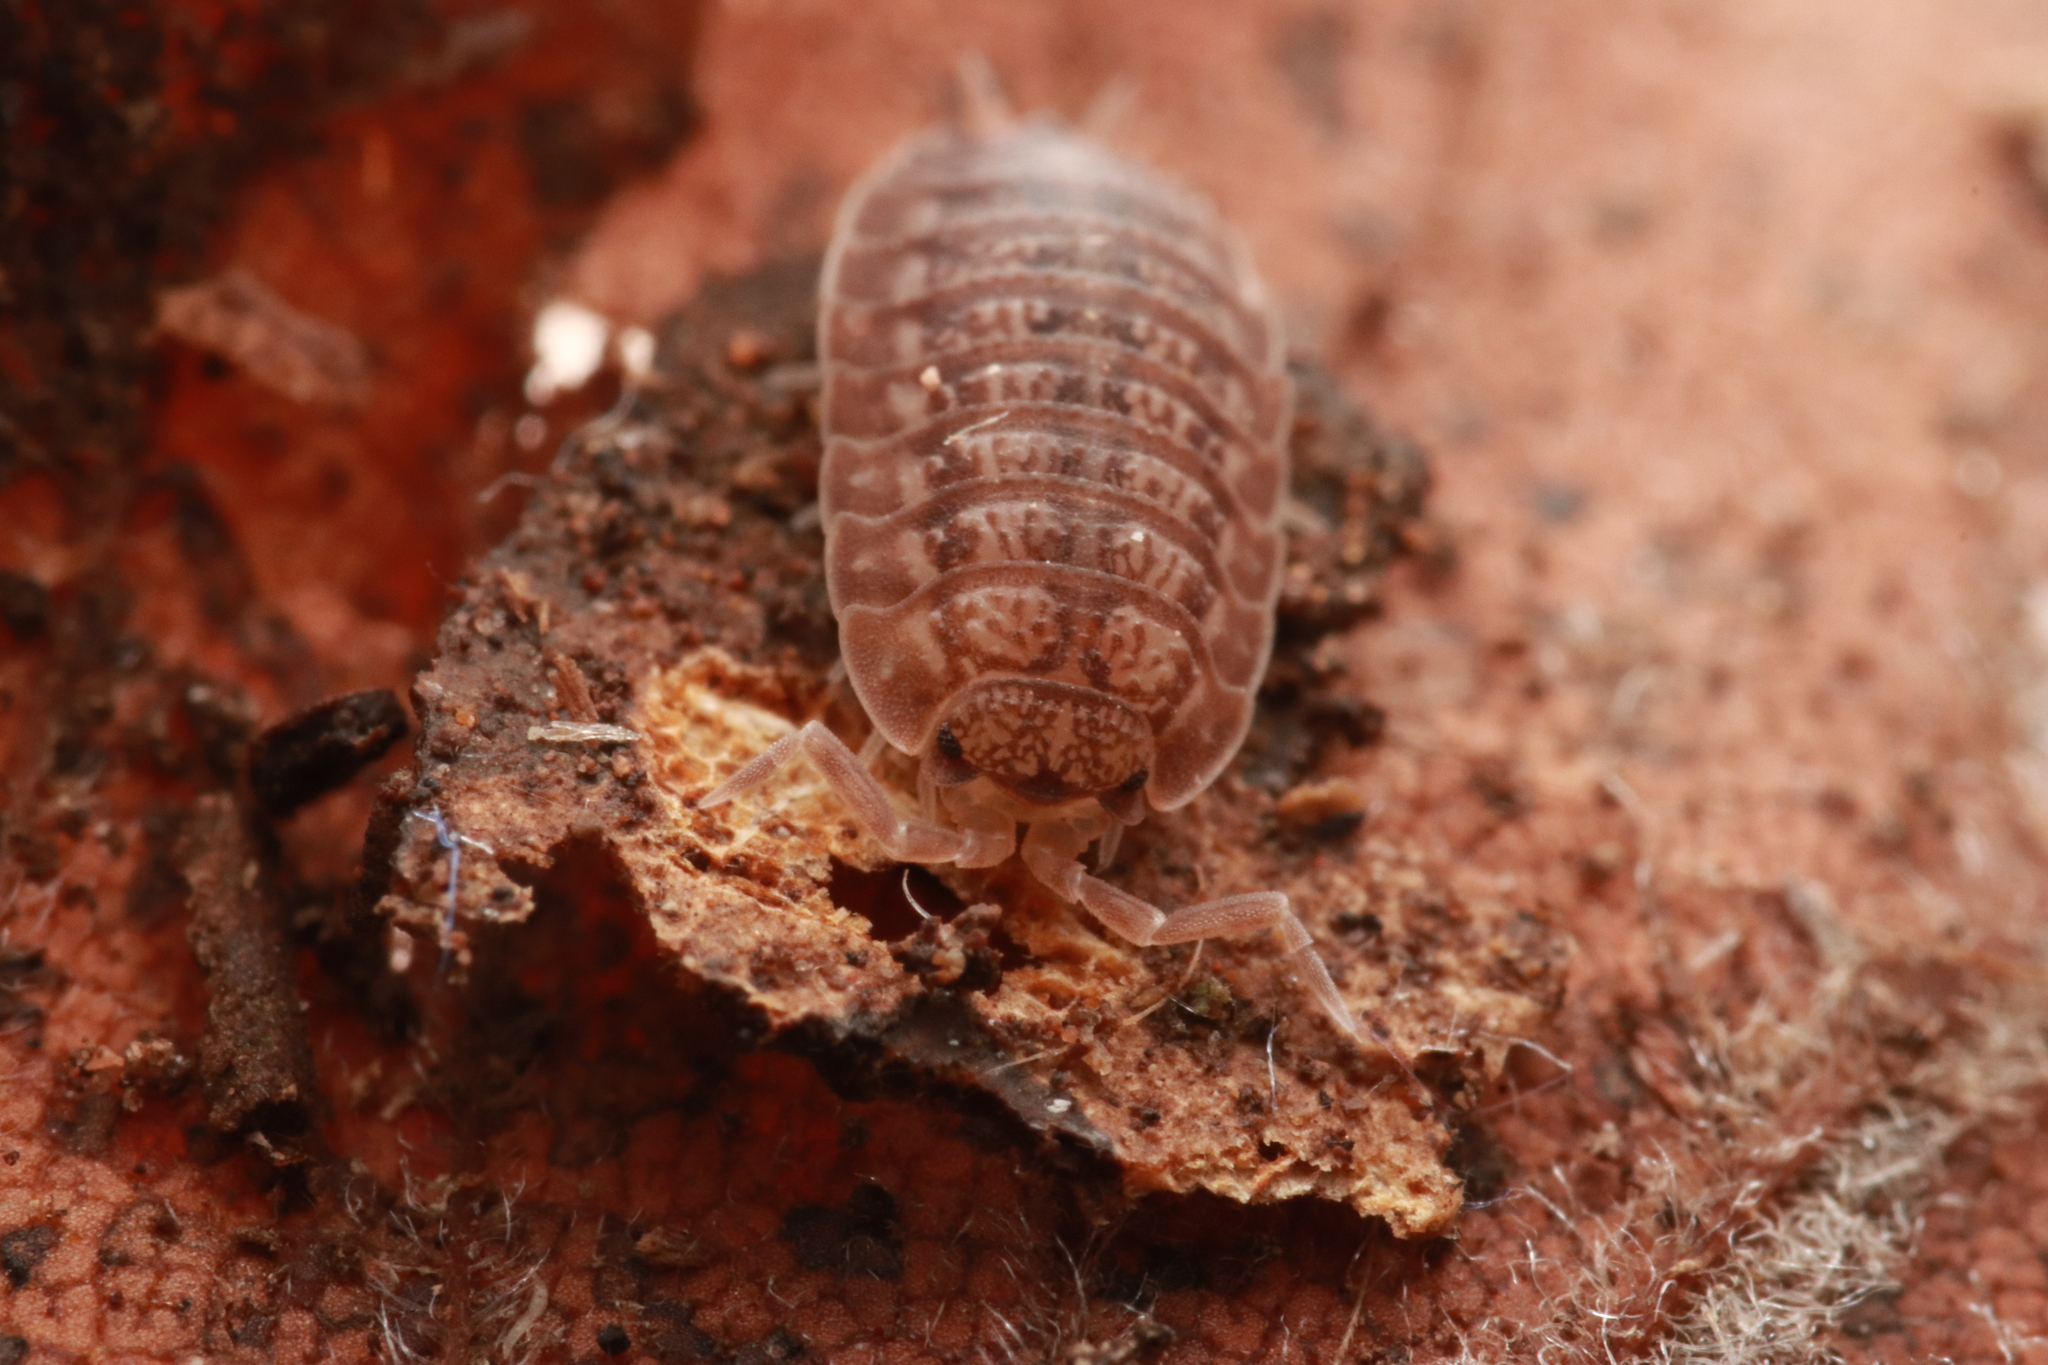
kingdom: Animalia
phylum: Arthropoda
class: Malacostraca
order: Isopoda
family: Porcellionidae
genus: Lucasius
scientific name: Lucasius pallidus
